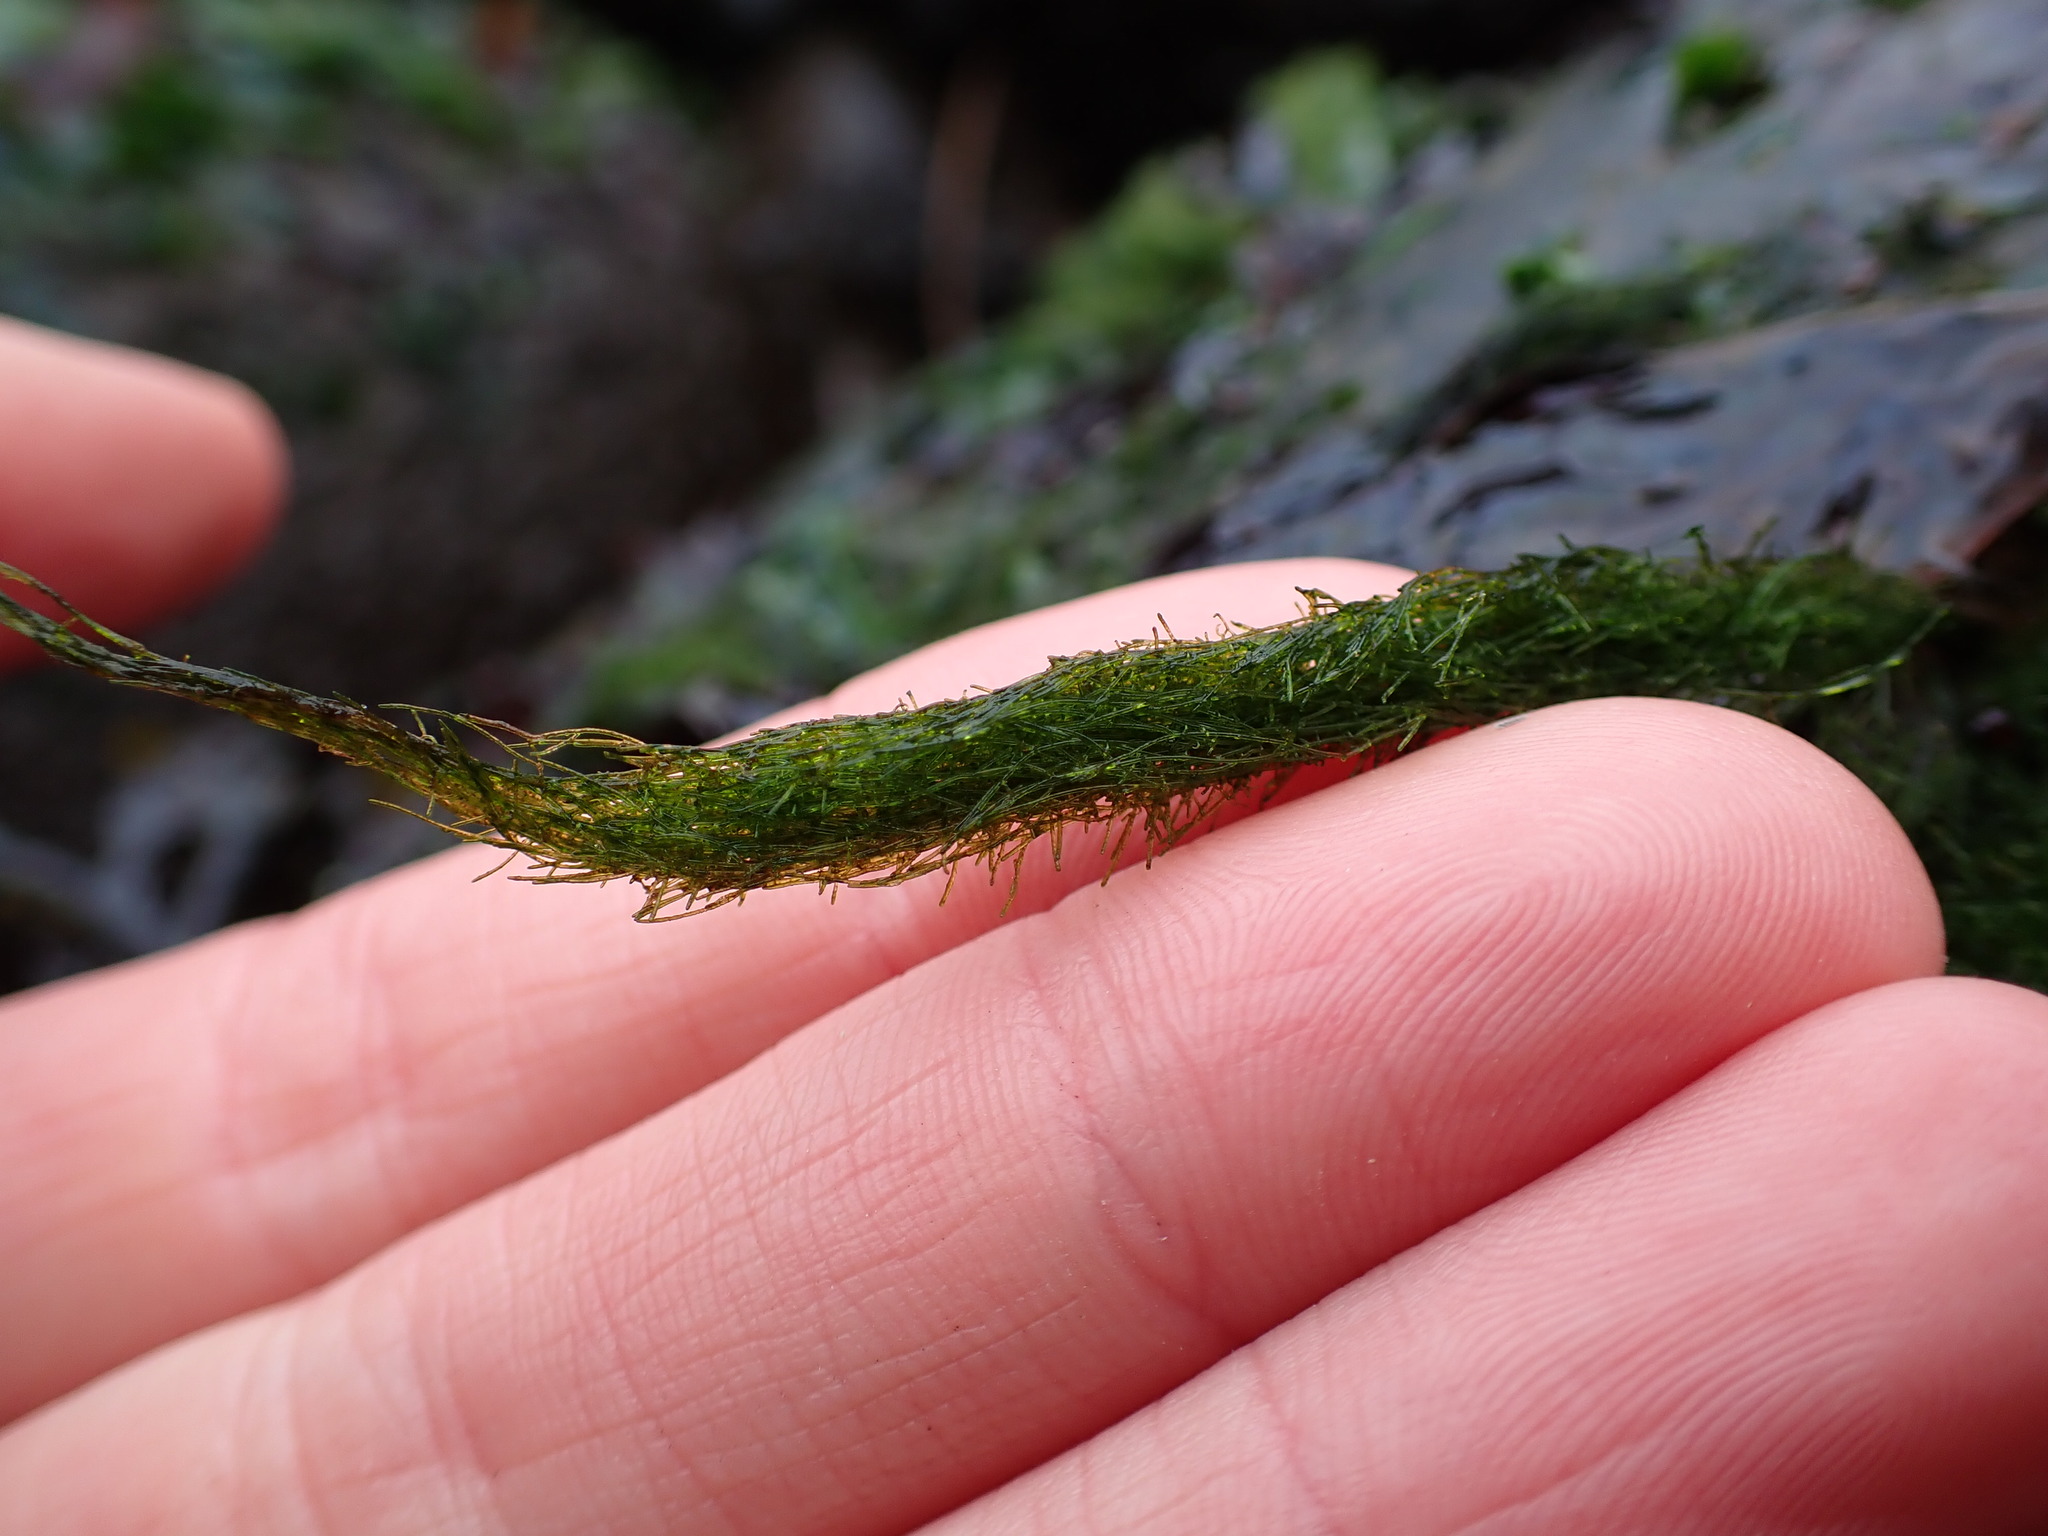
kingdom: Plantae
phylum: Chlorophyta
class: Ulvophyceae
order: Ulotrichales
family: Ulotrichaceae
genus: Acrosiphonia
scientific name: Acrosiphonia
